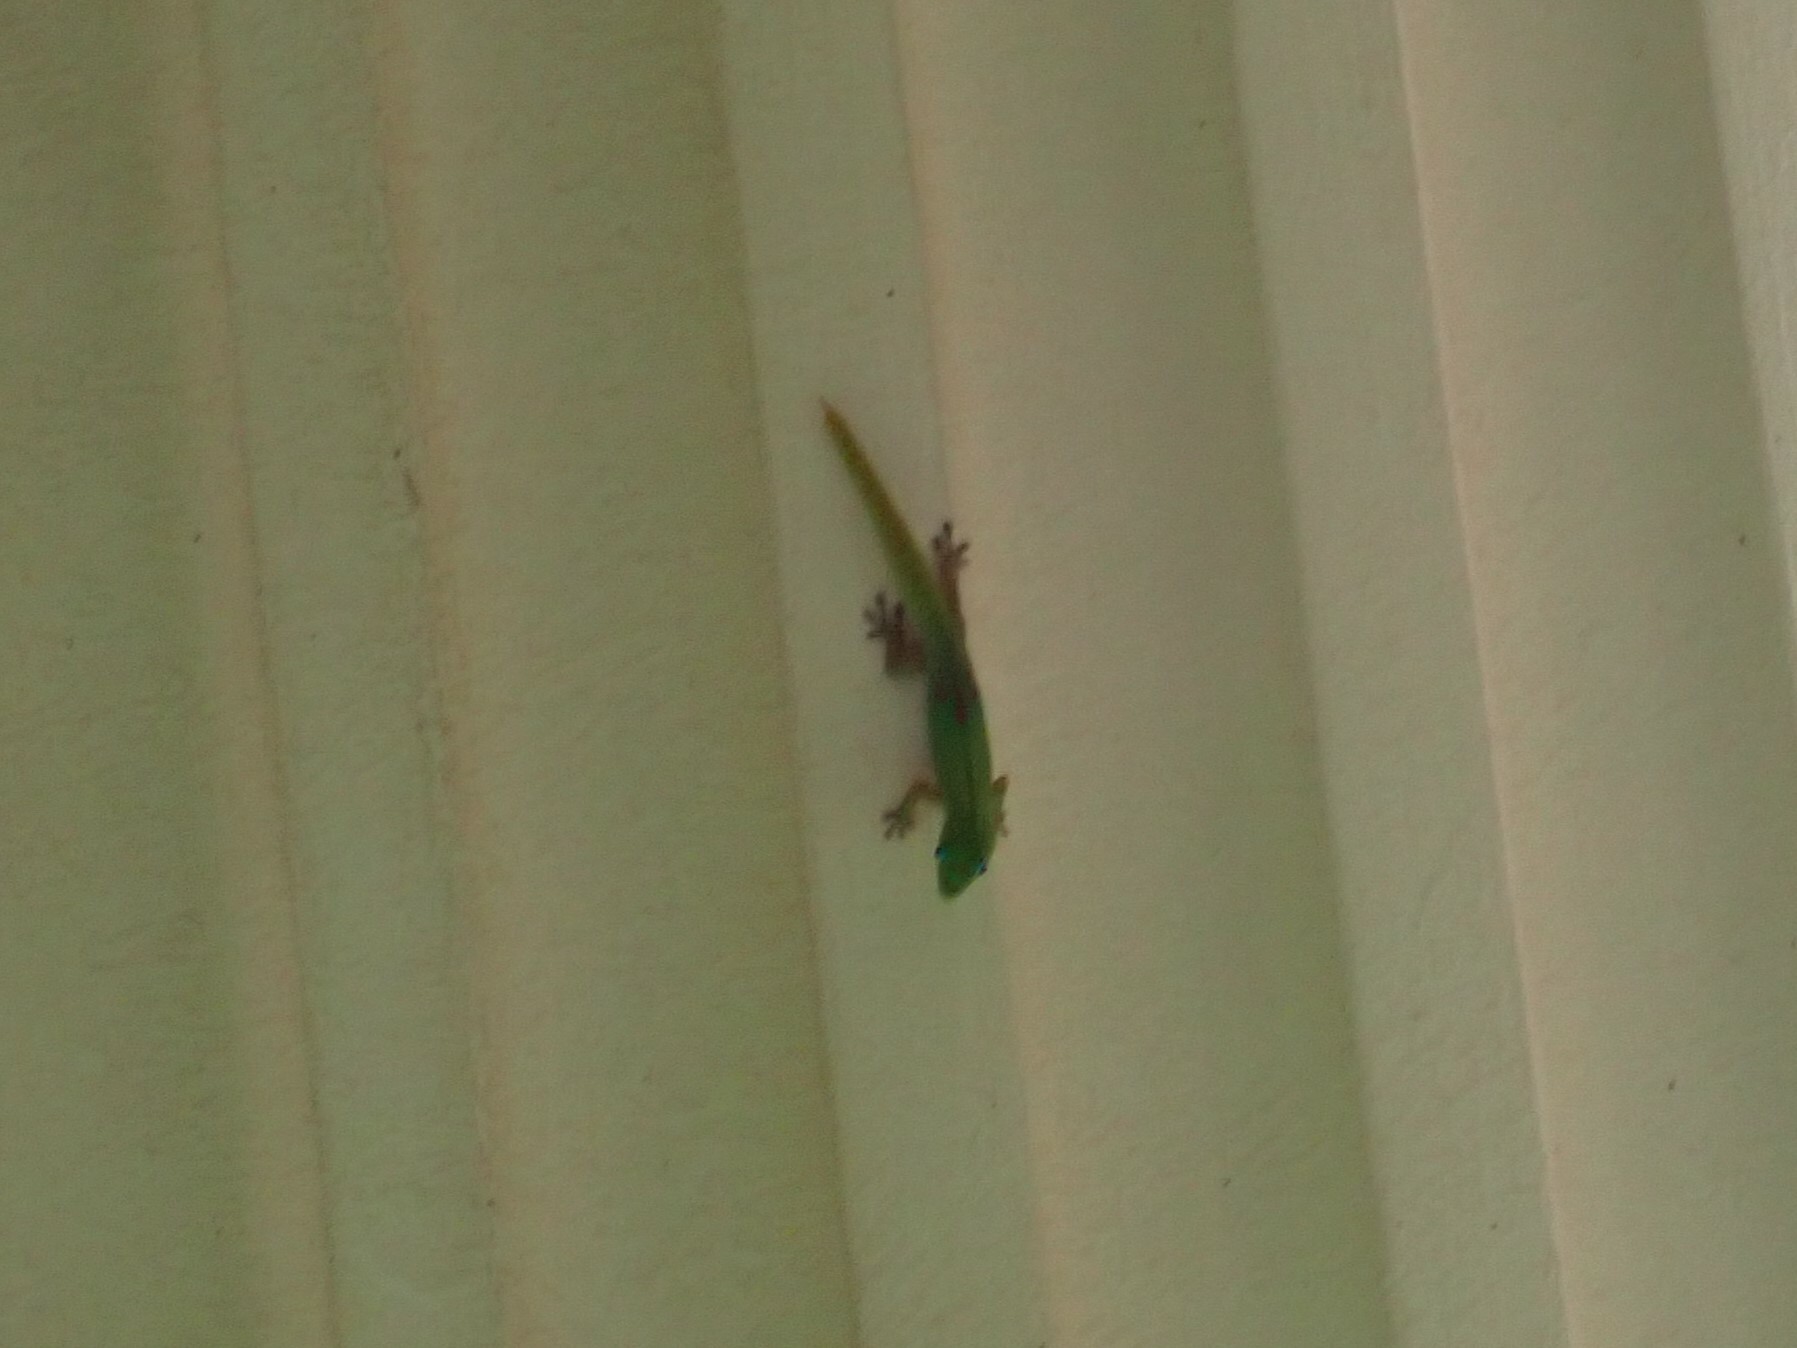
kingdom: Animalia
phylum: Chordata
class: Squamata
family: Gekkonidae
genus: Phelsuma
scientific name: Phelsuma laticauda
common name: Gold dust day gecko
